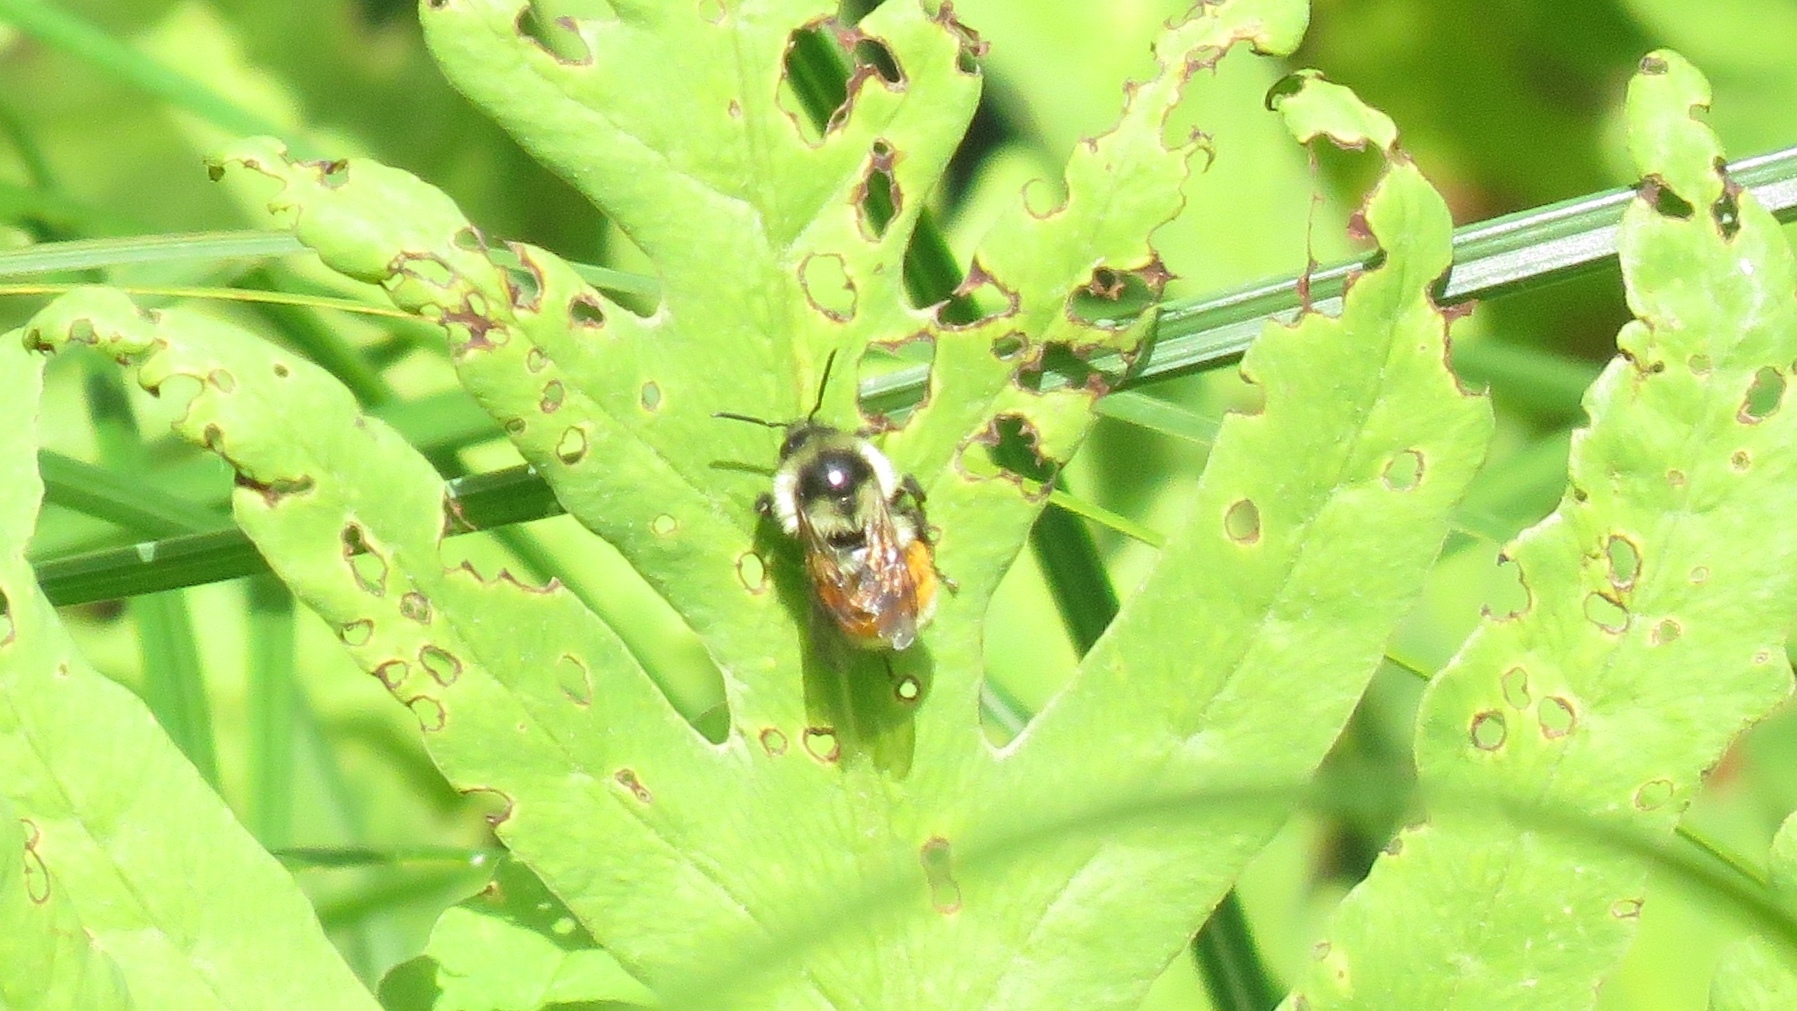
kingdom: Animalia
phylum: Arthropoda
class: Insecta
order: Hymenoptera
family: Apidae
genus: Bombus
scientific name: Bombus ternarius
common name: Tri-colored bumble bee
